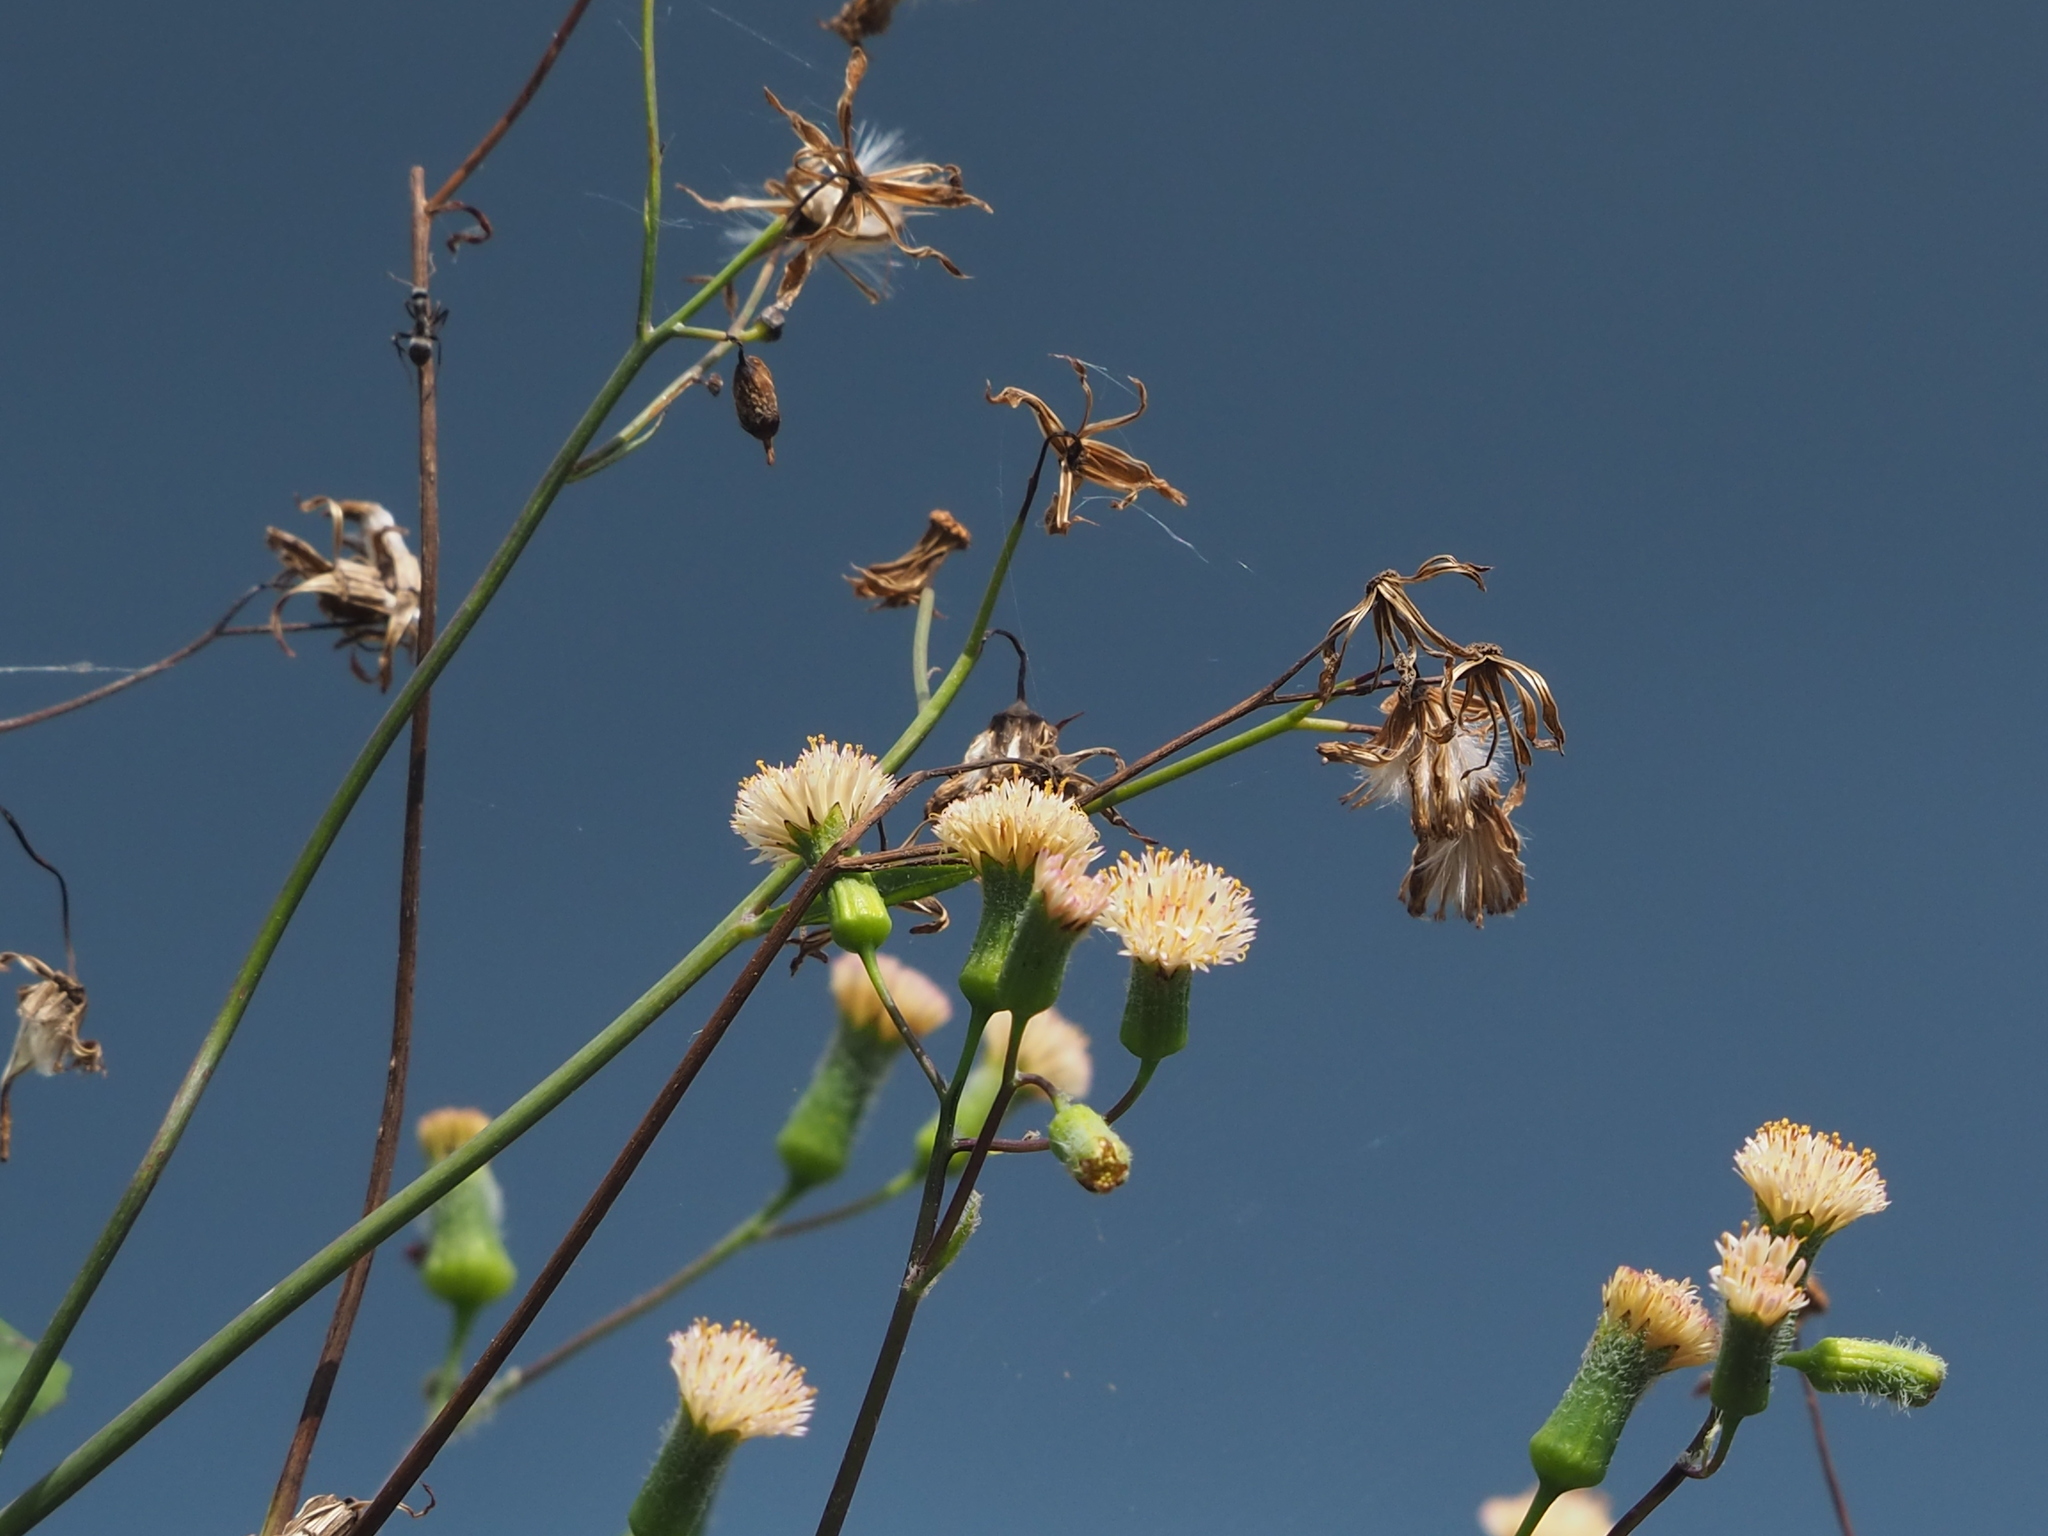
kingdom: Plantae
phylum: Tracheophyta
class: Magnoliopsida
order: Asterales
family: Asteraceae
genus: Emilia
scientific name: Emilia praetermissa
